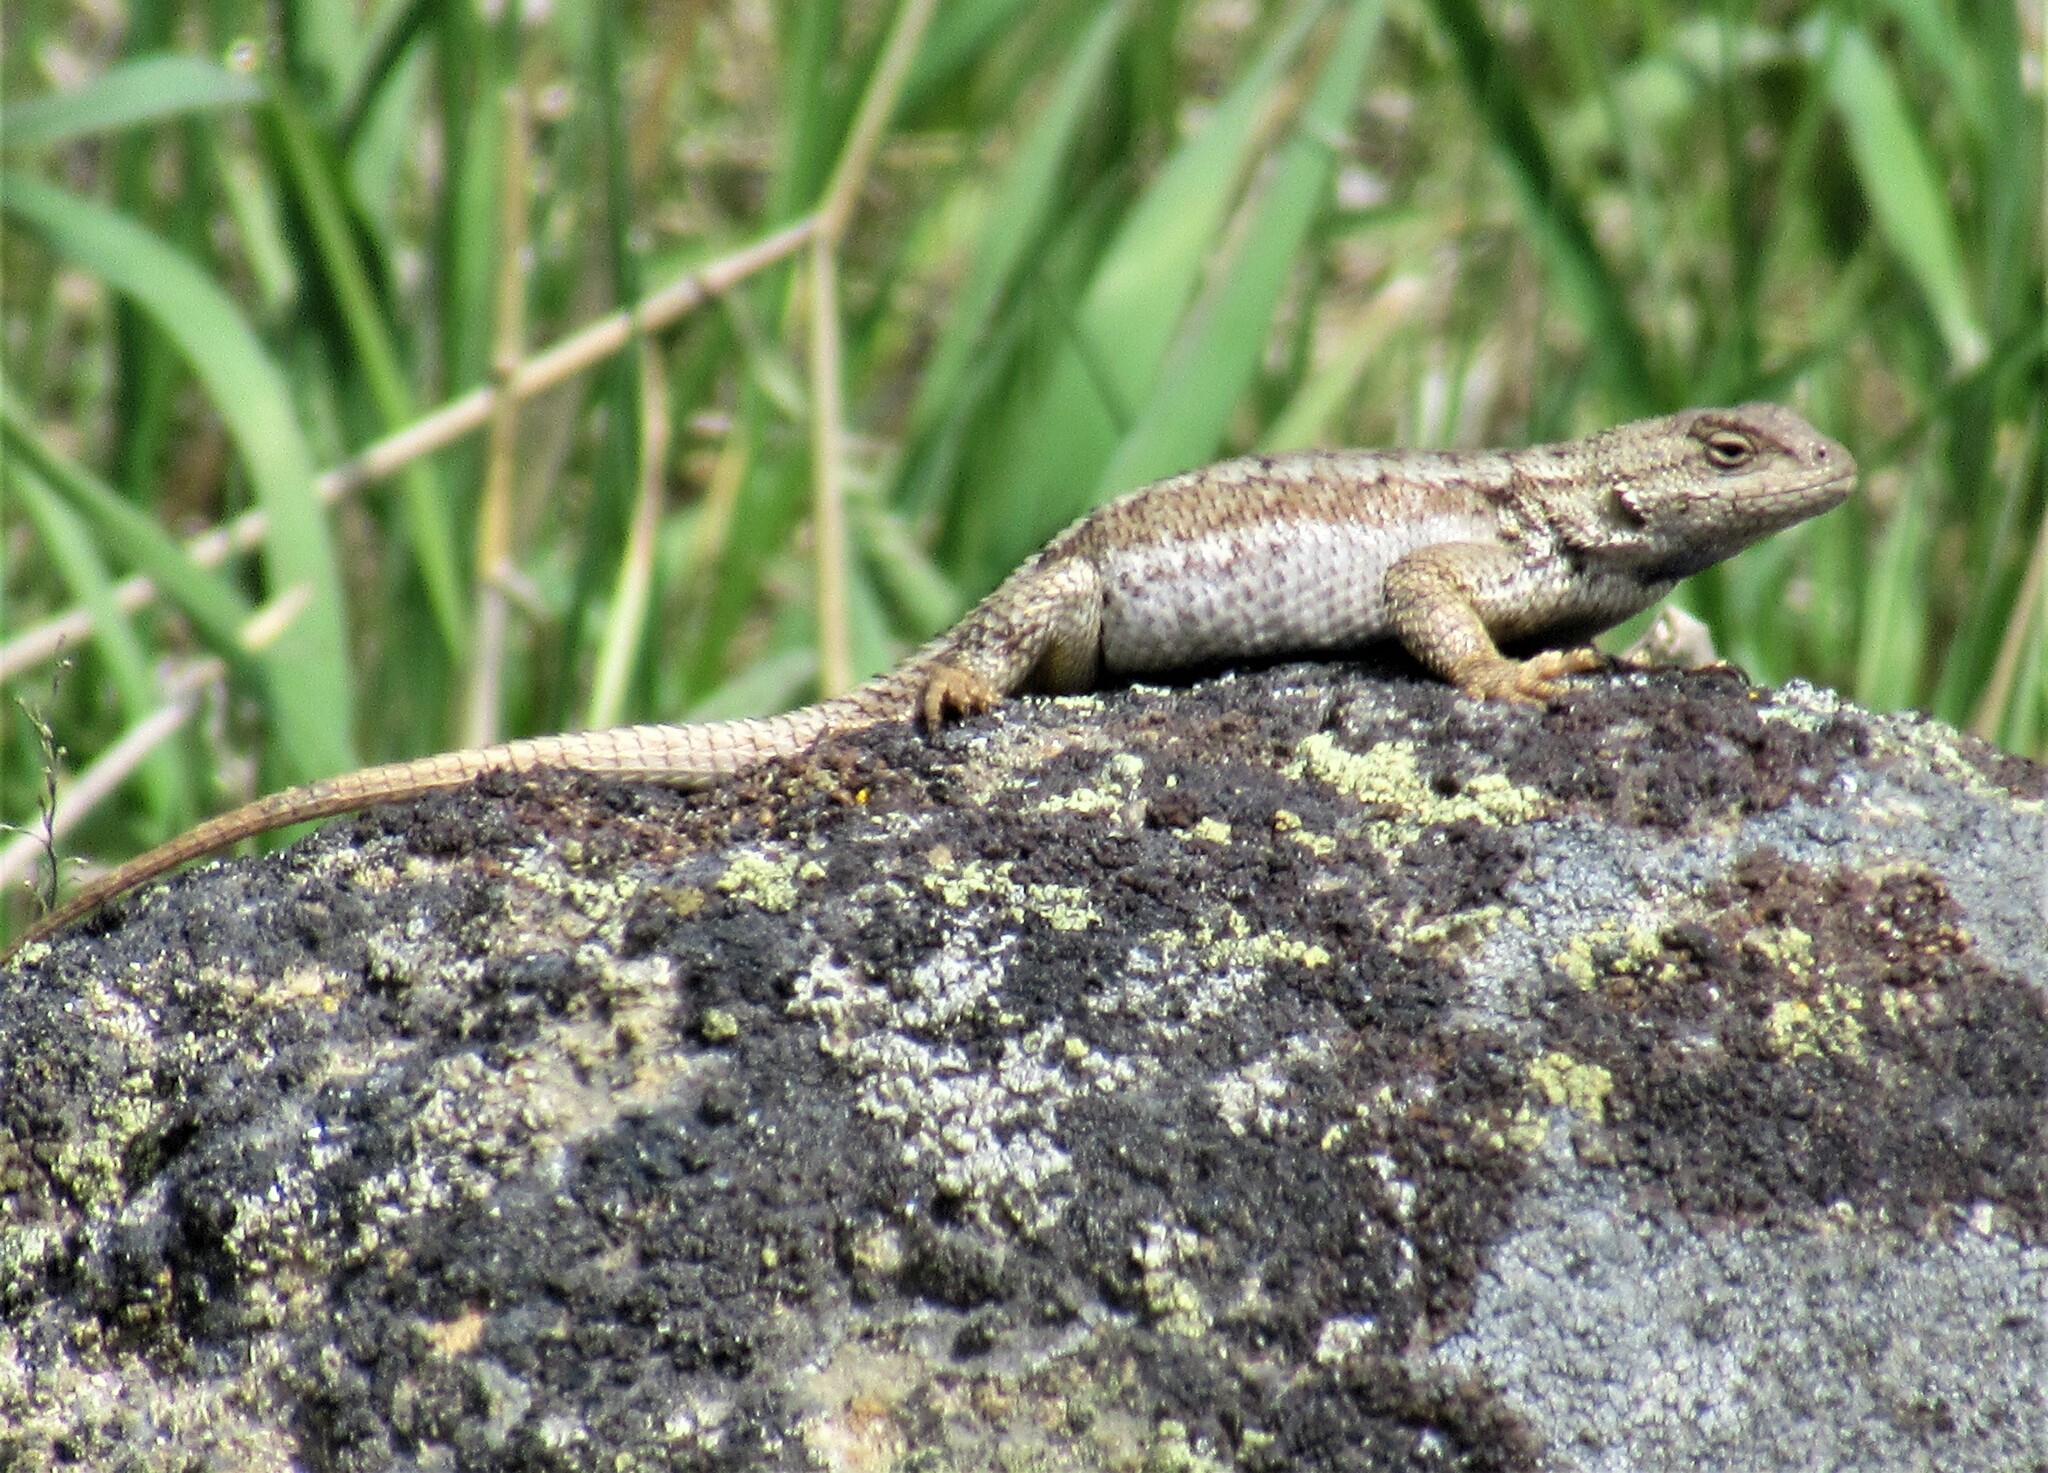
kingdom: Animalia
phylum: Chordata
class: Squamata
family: Phrynosomatidae
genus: Sceloporus
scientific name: Sceloporus occidentalis
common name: Western fence lizard
